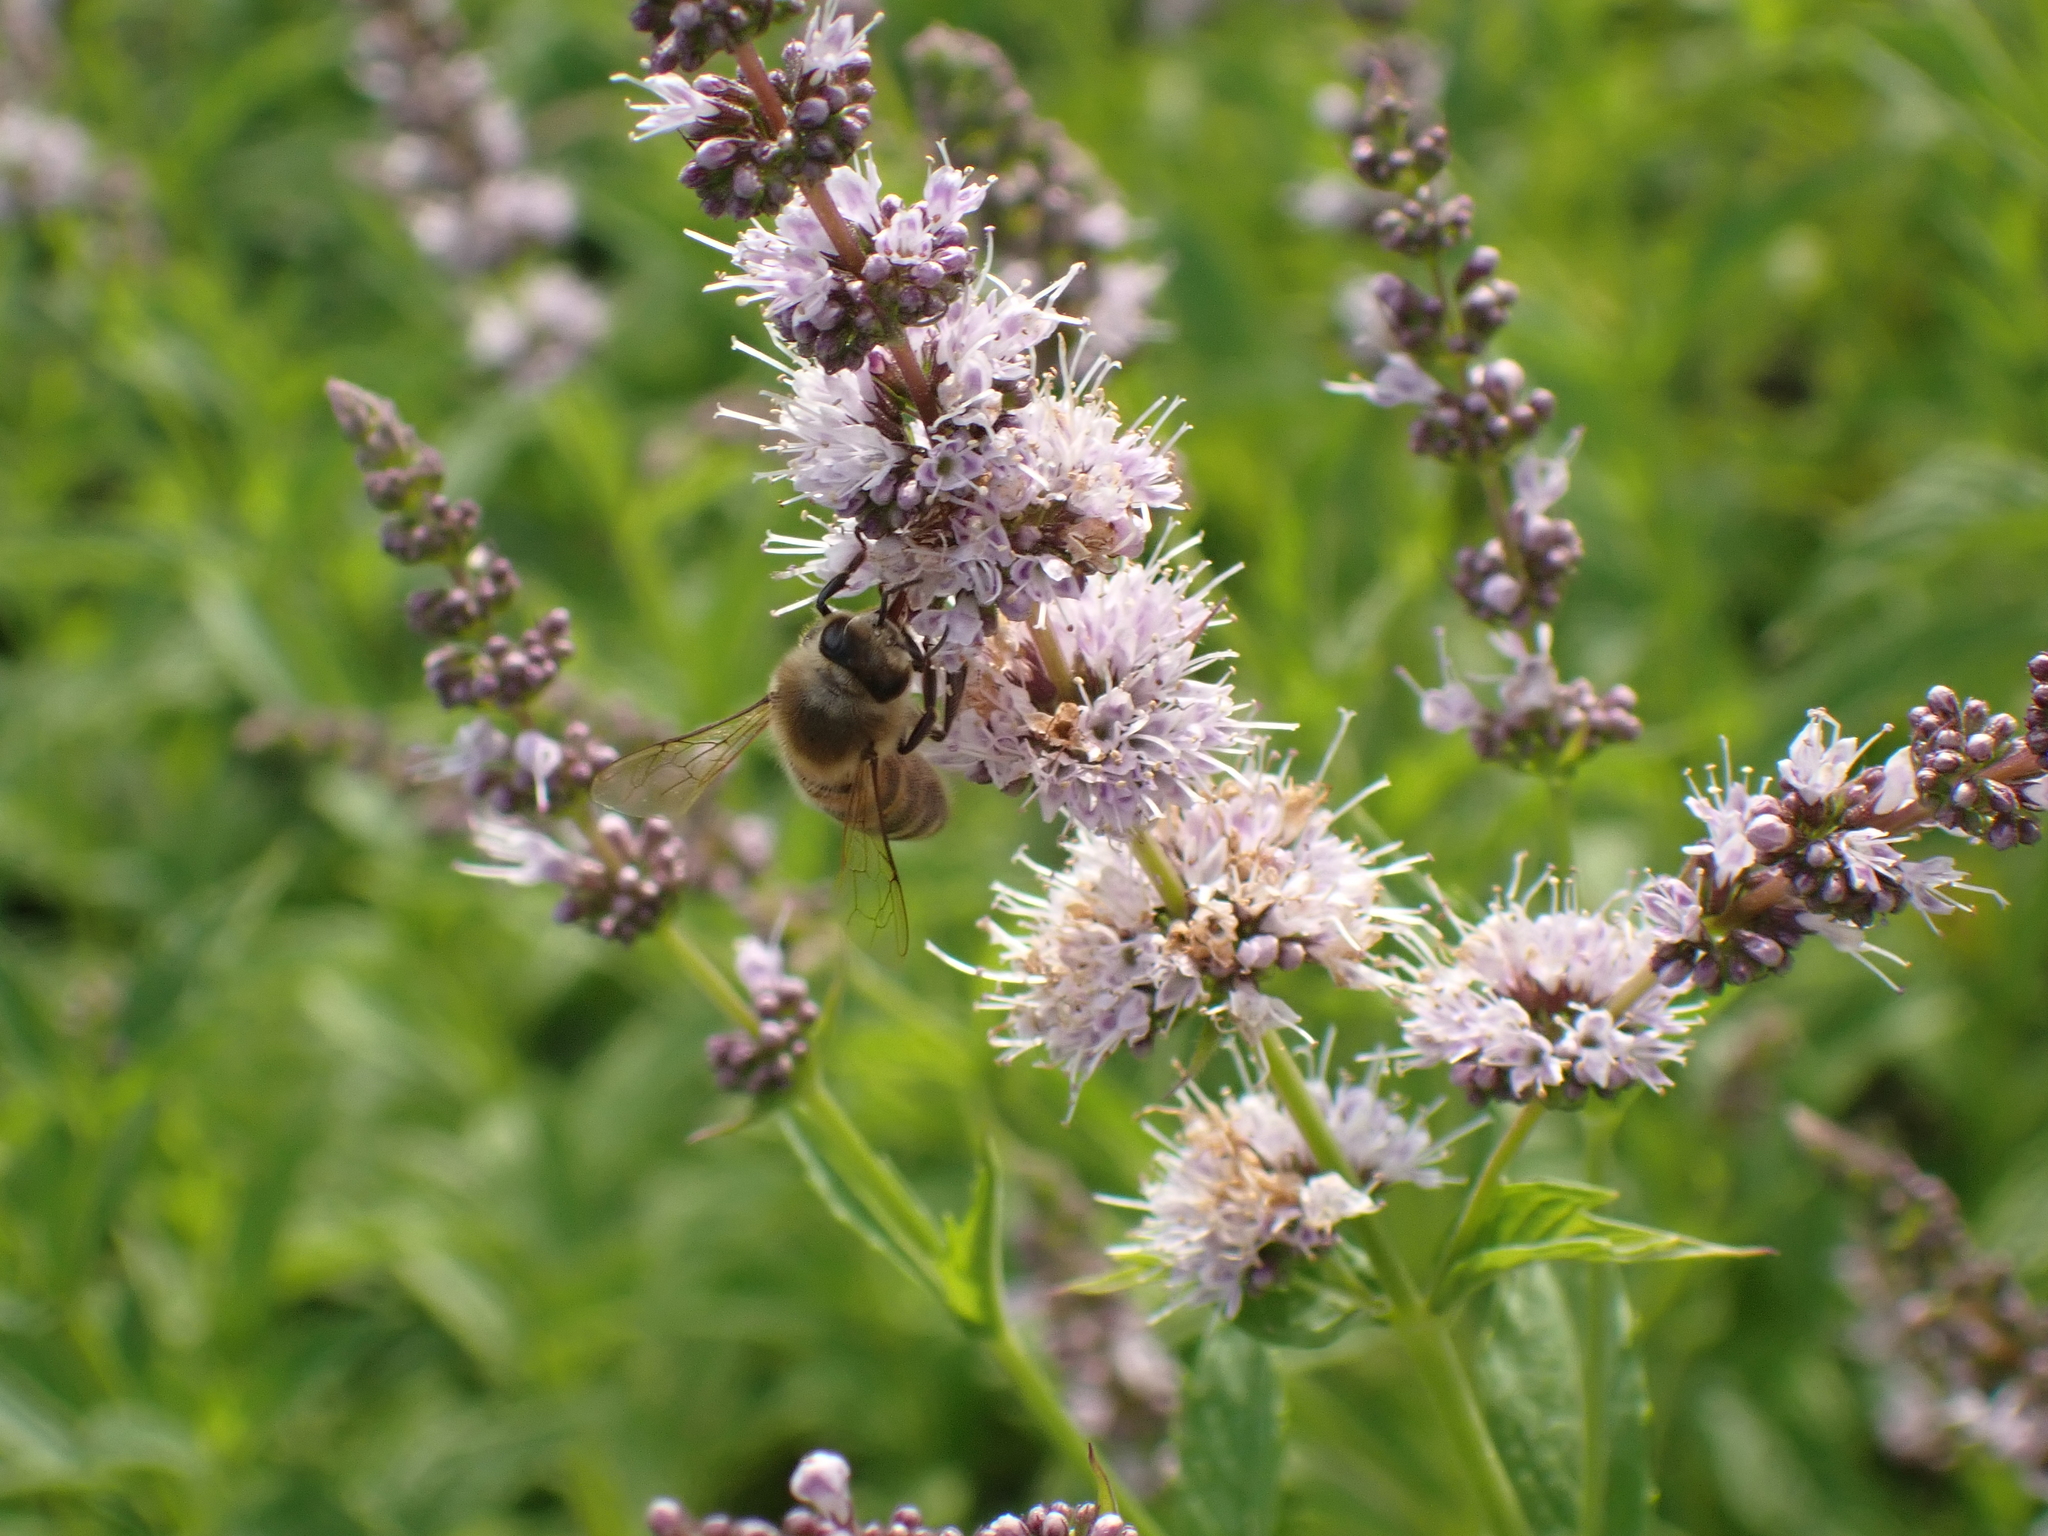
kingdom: Animalia
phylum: Arthropoda
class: Insecta
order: Hymenoptera
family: Apidae
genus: Apis
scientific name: Apis mellifera
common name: Honey bee
